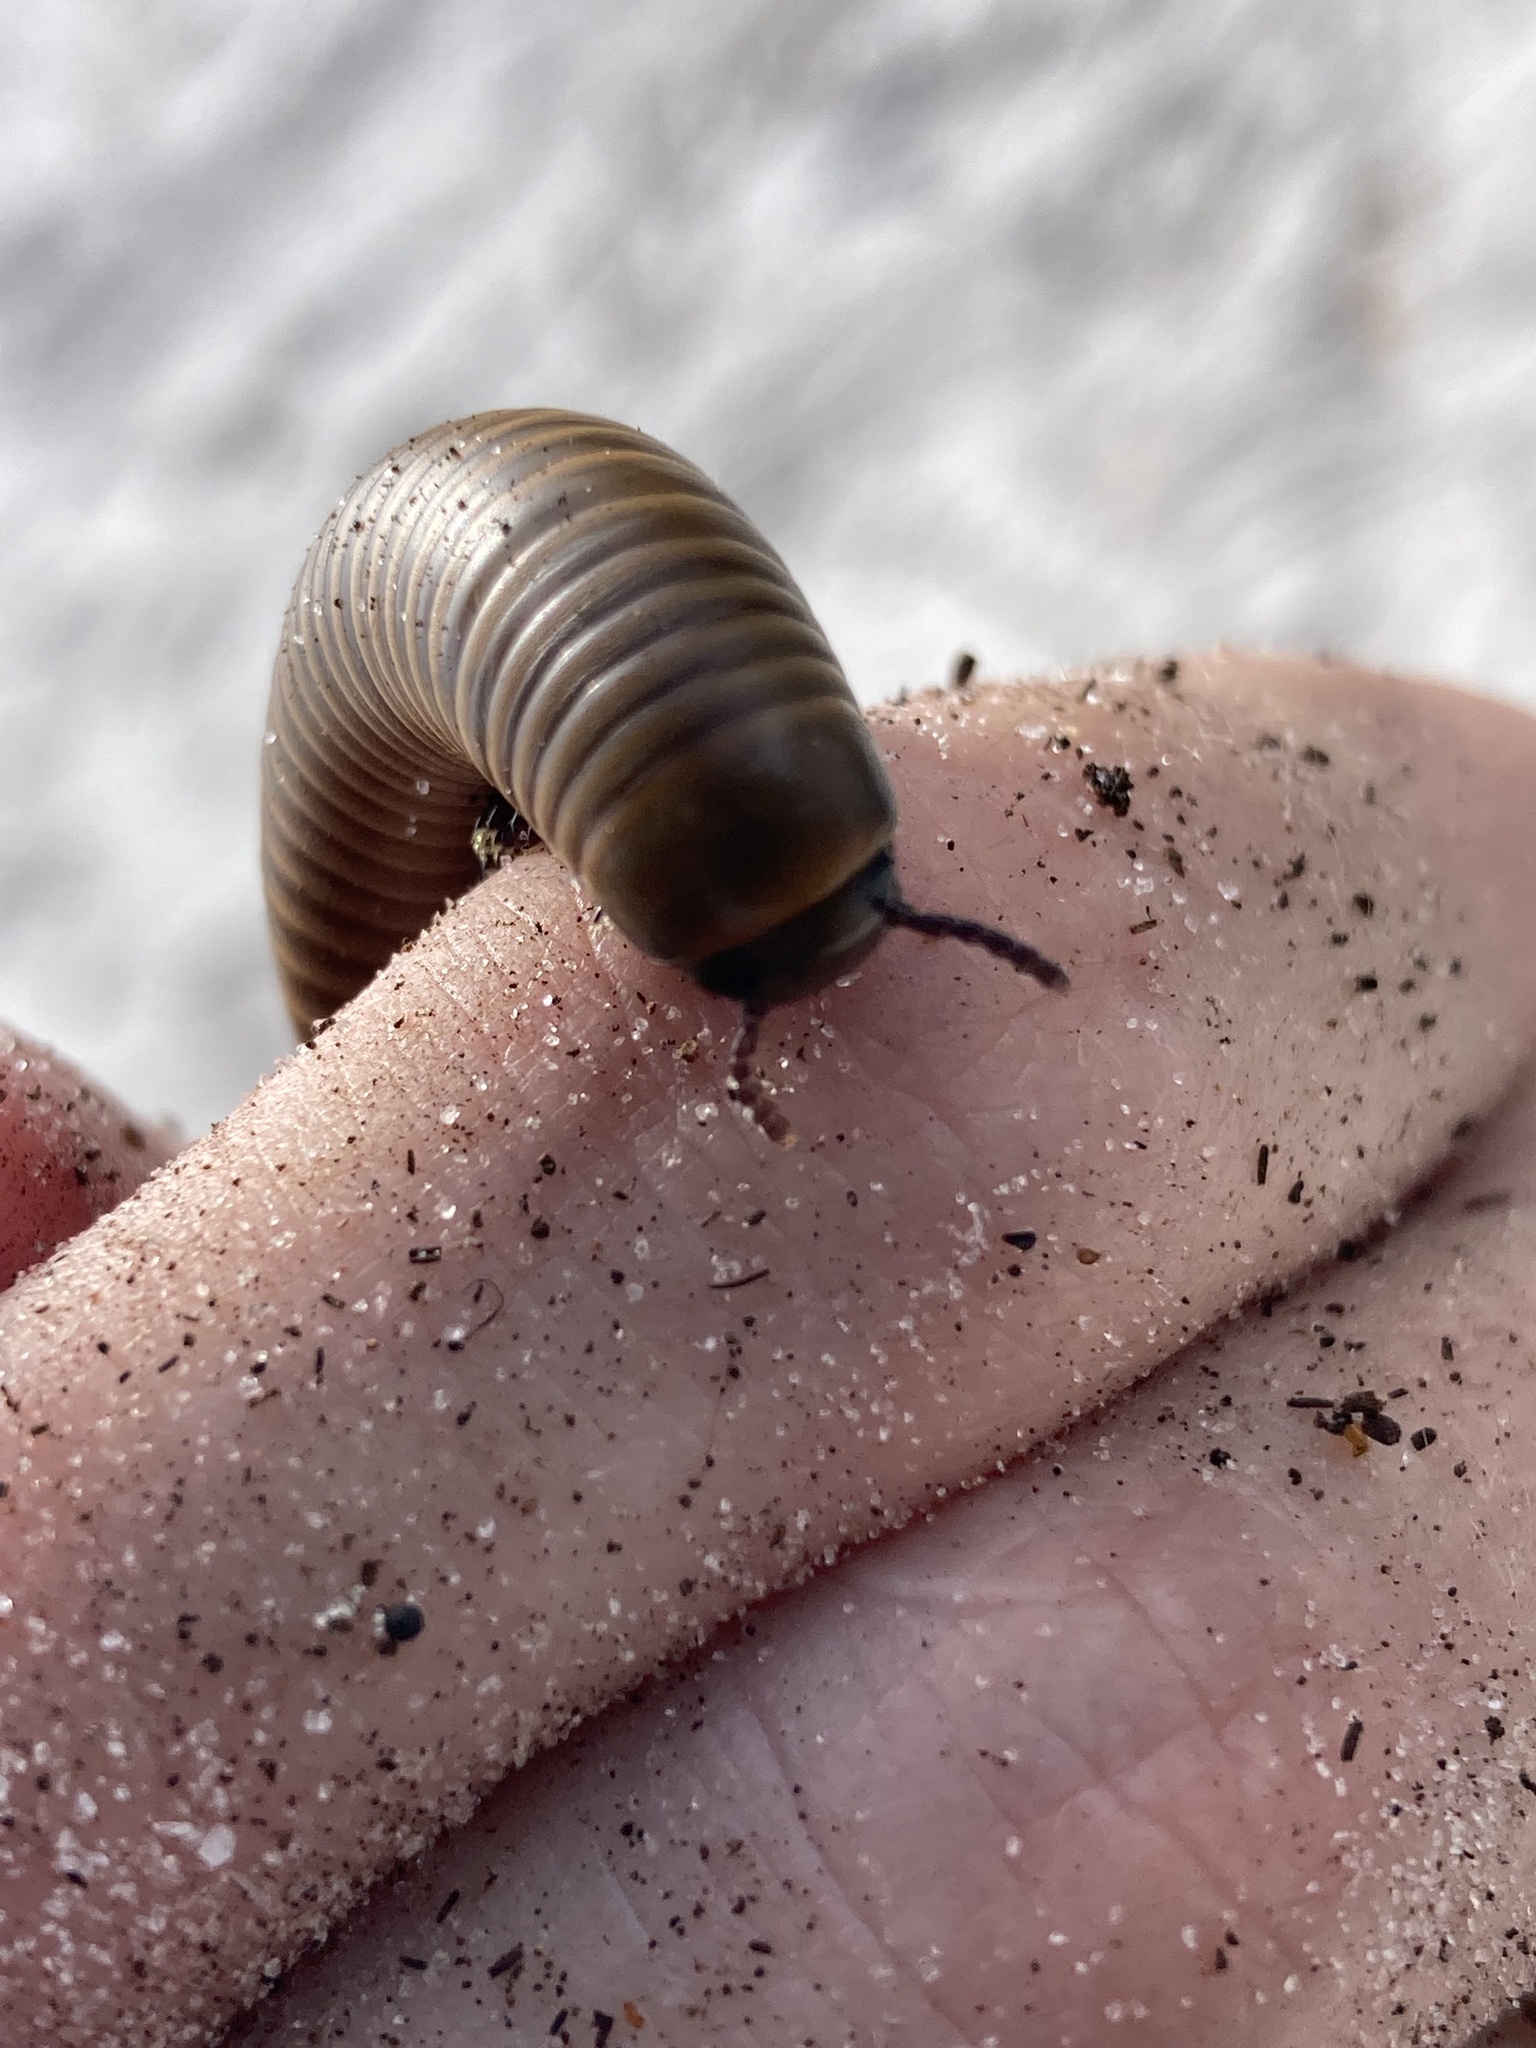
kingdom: Animalia
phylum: Arthropoda
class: Diplopoda
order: Spirobolida
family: Spirobolidae
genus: Narceus
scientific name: Narceus gordanus
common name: Grayish-green millipede
